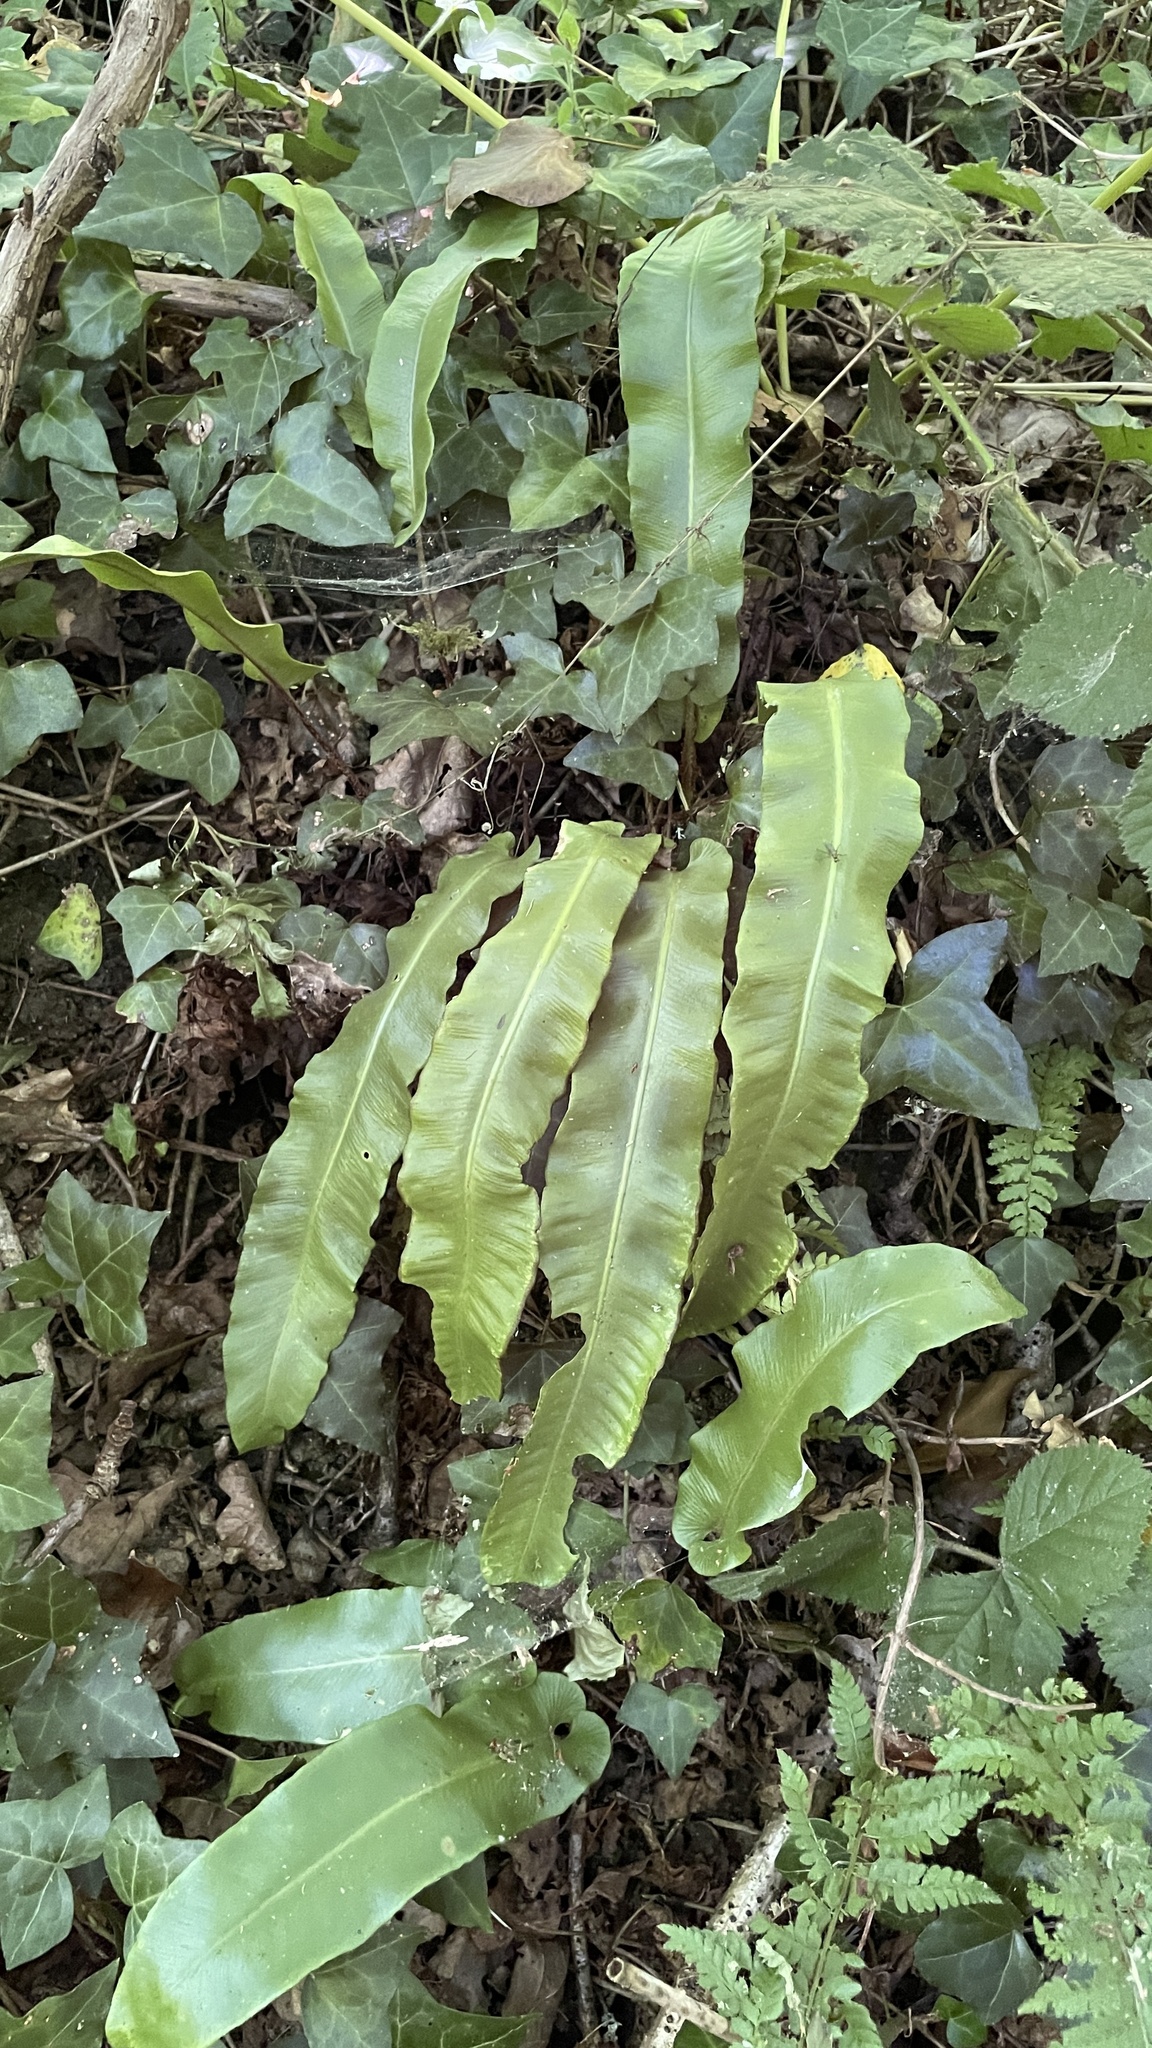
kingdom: Plantae
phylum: Tracheophyta
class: Polypodiopsida
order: Polypodiales
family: Aspleniaceae
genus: Asplenium
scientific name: Asplenium scolopendrium
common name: Hart's-tongue fern
